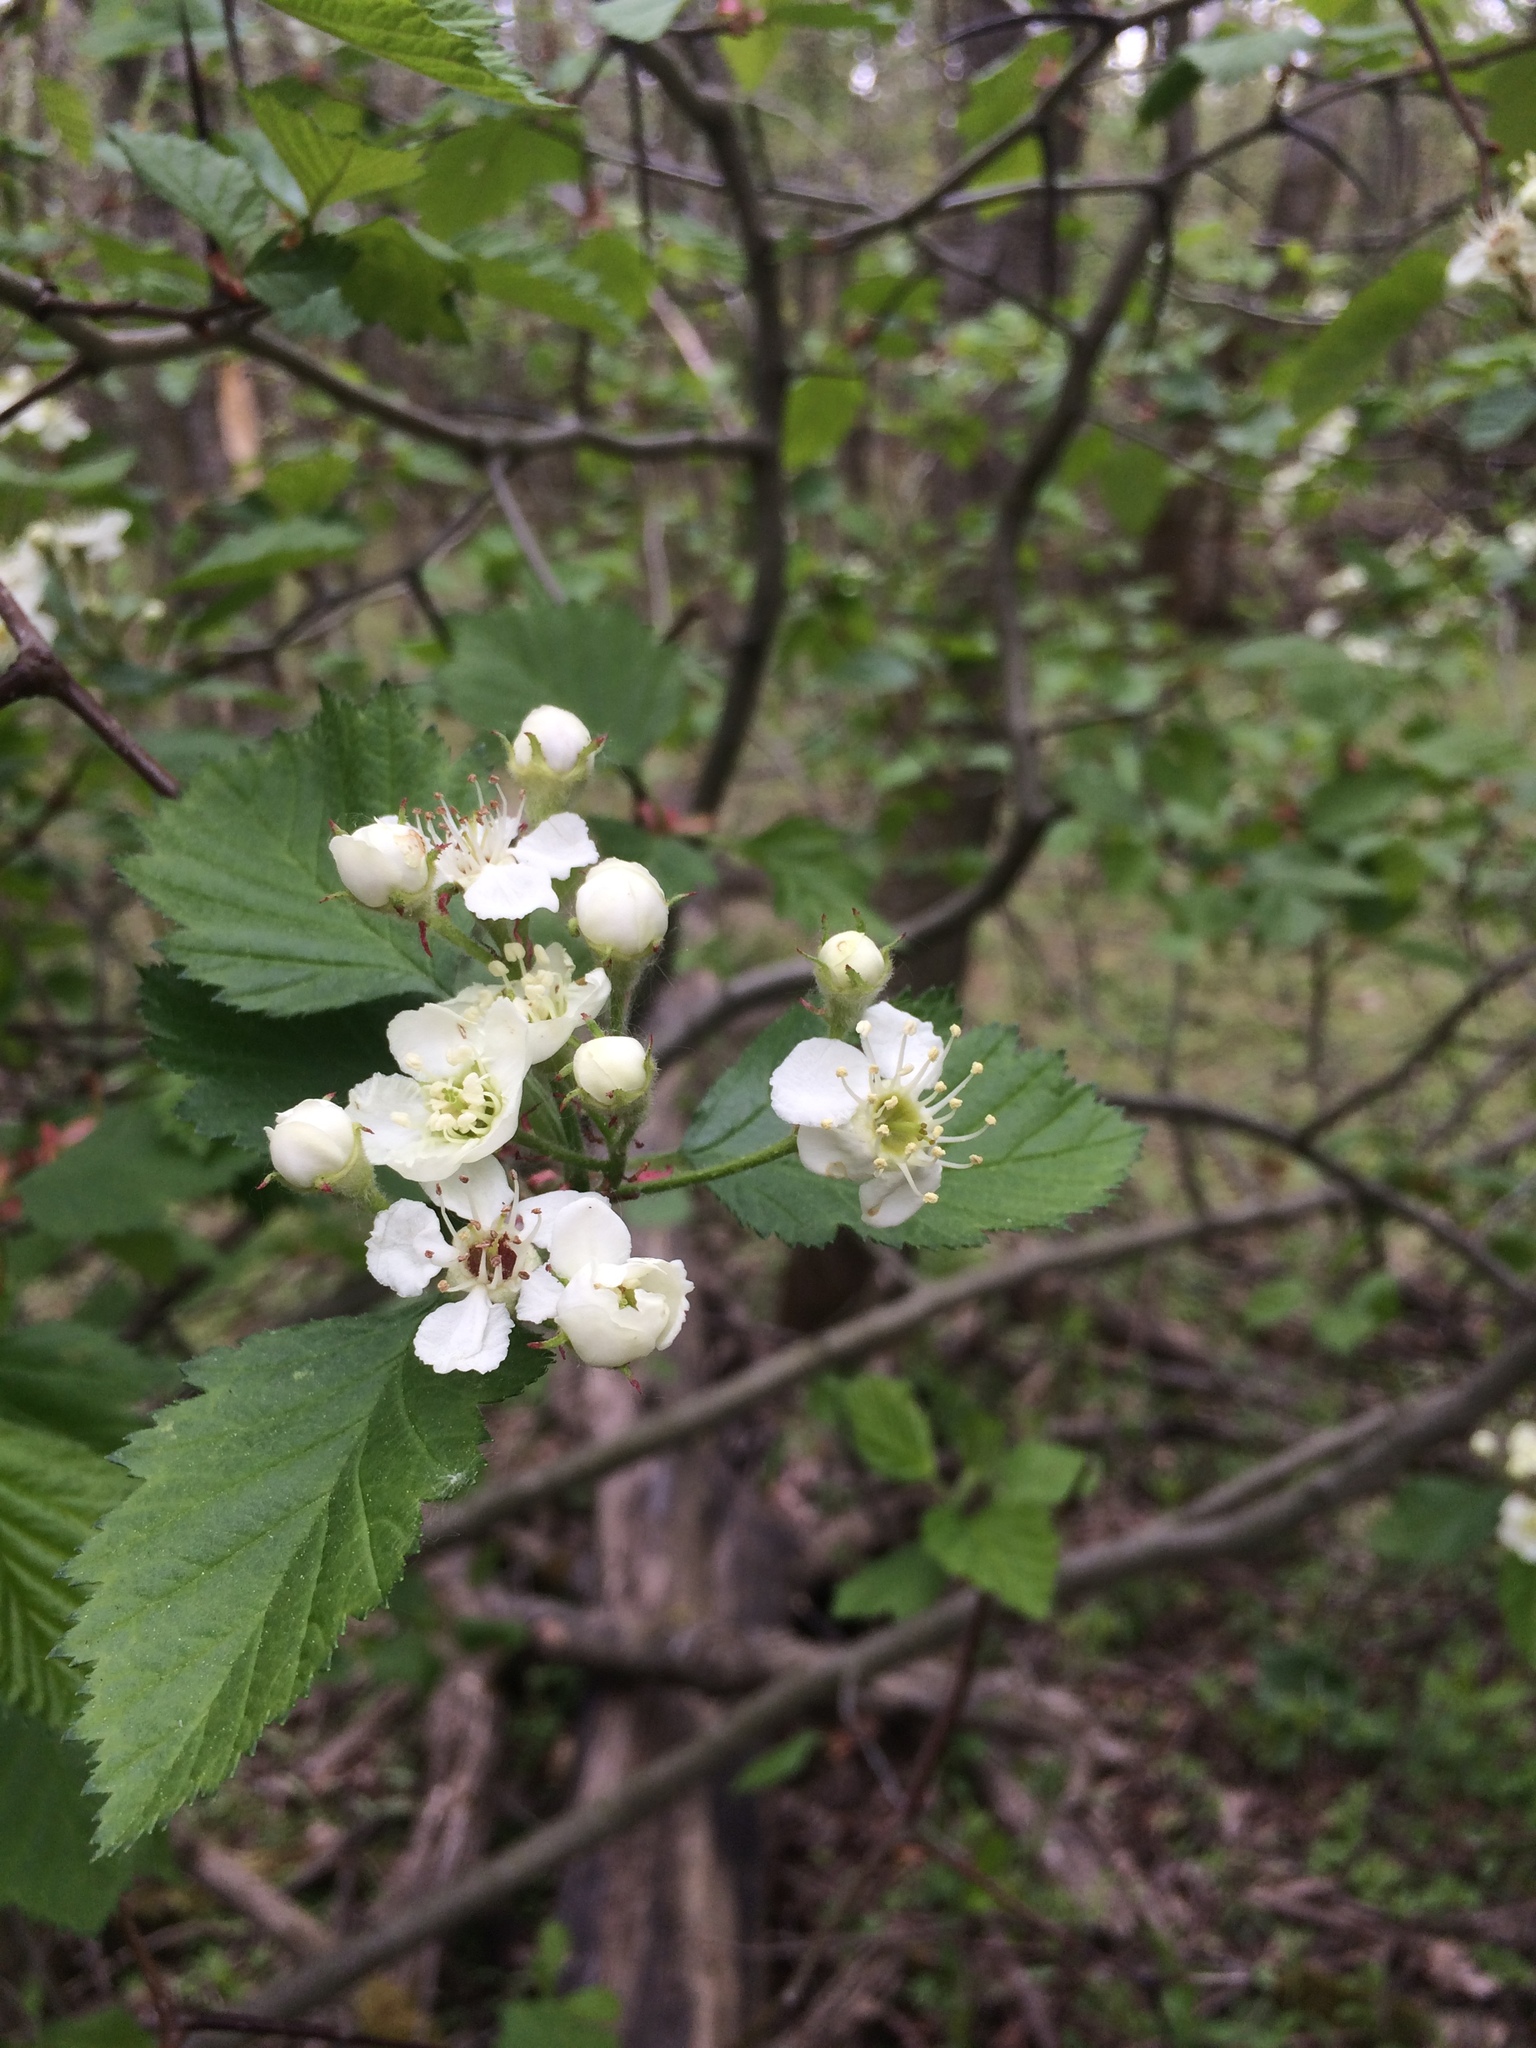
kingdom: Plantae
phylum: Tracheophyta
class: Magnoliopsida
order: Rosales
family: Rosaceae
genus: Crataegus
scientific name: Crataegus submollis
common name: Hairy cockspurthorn
